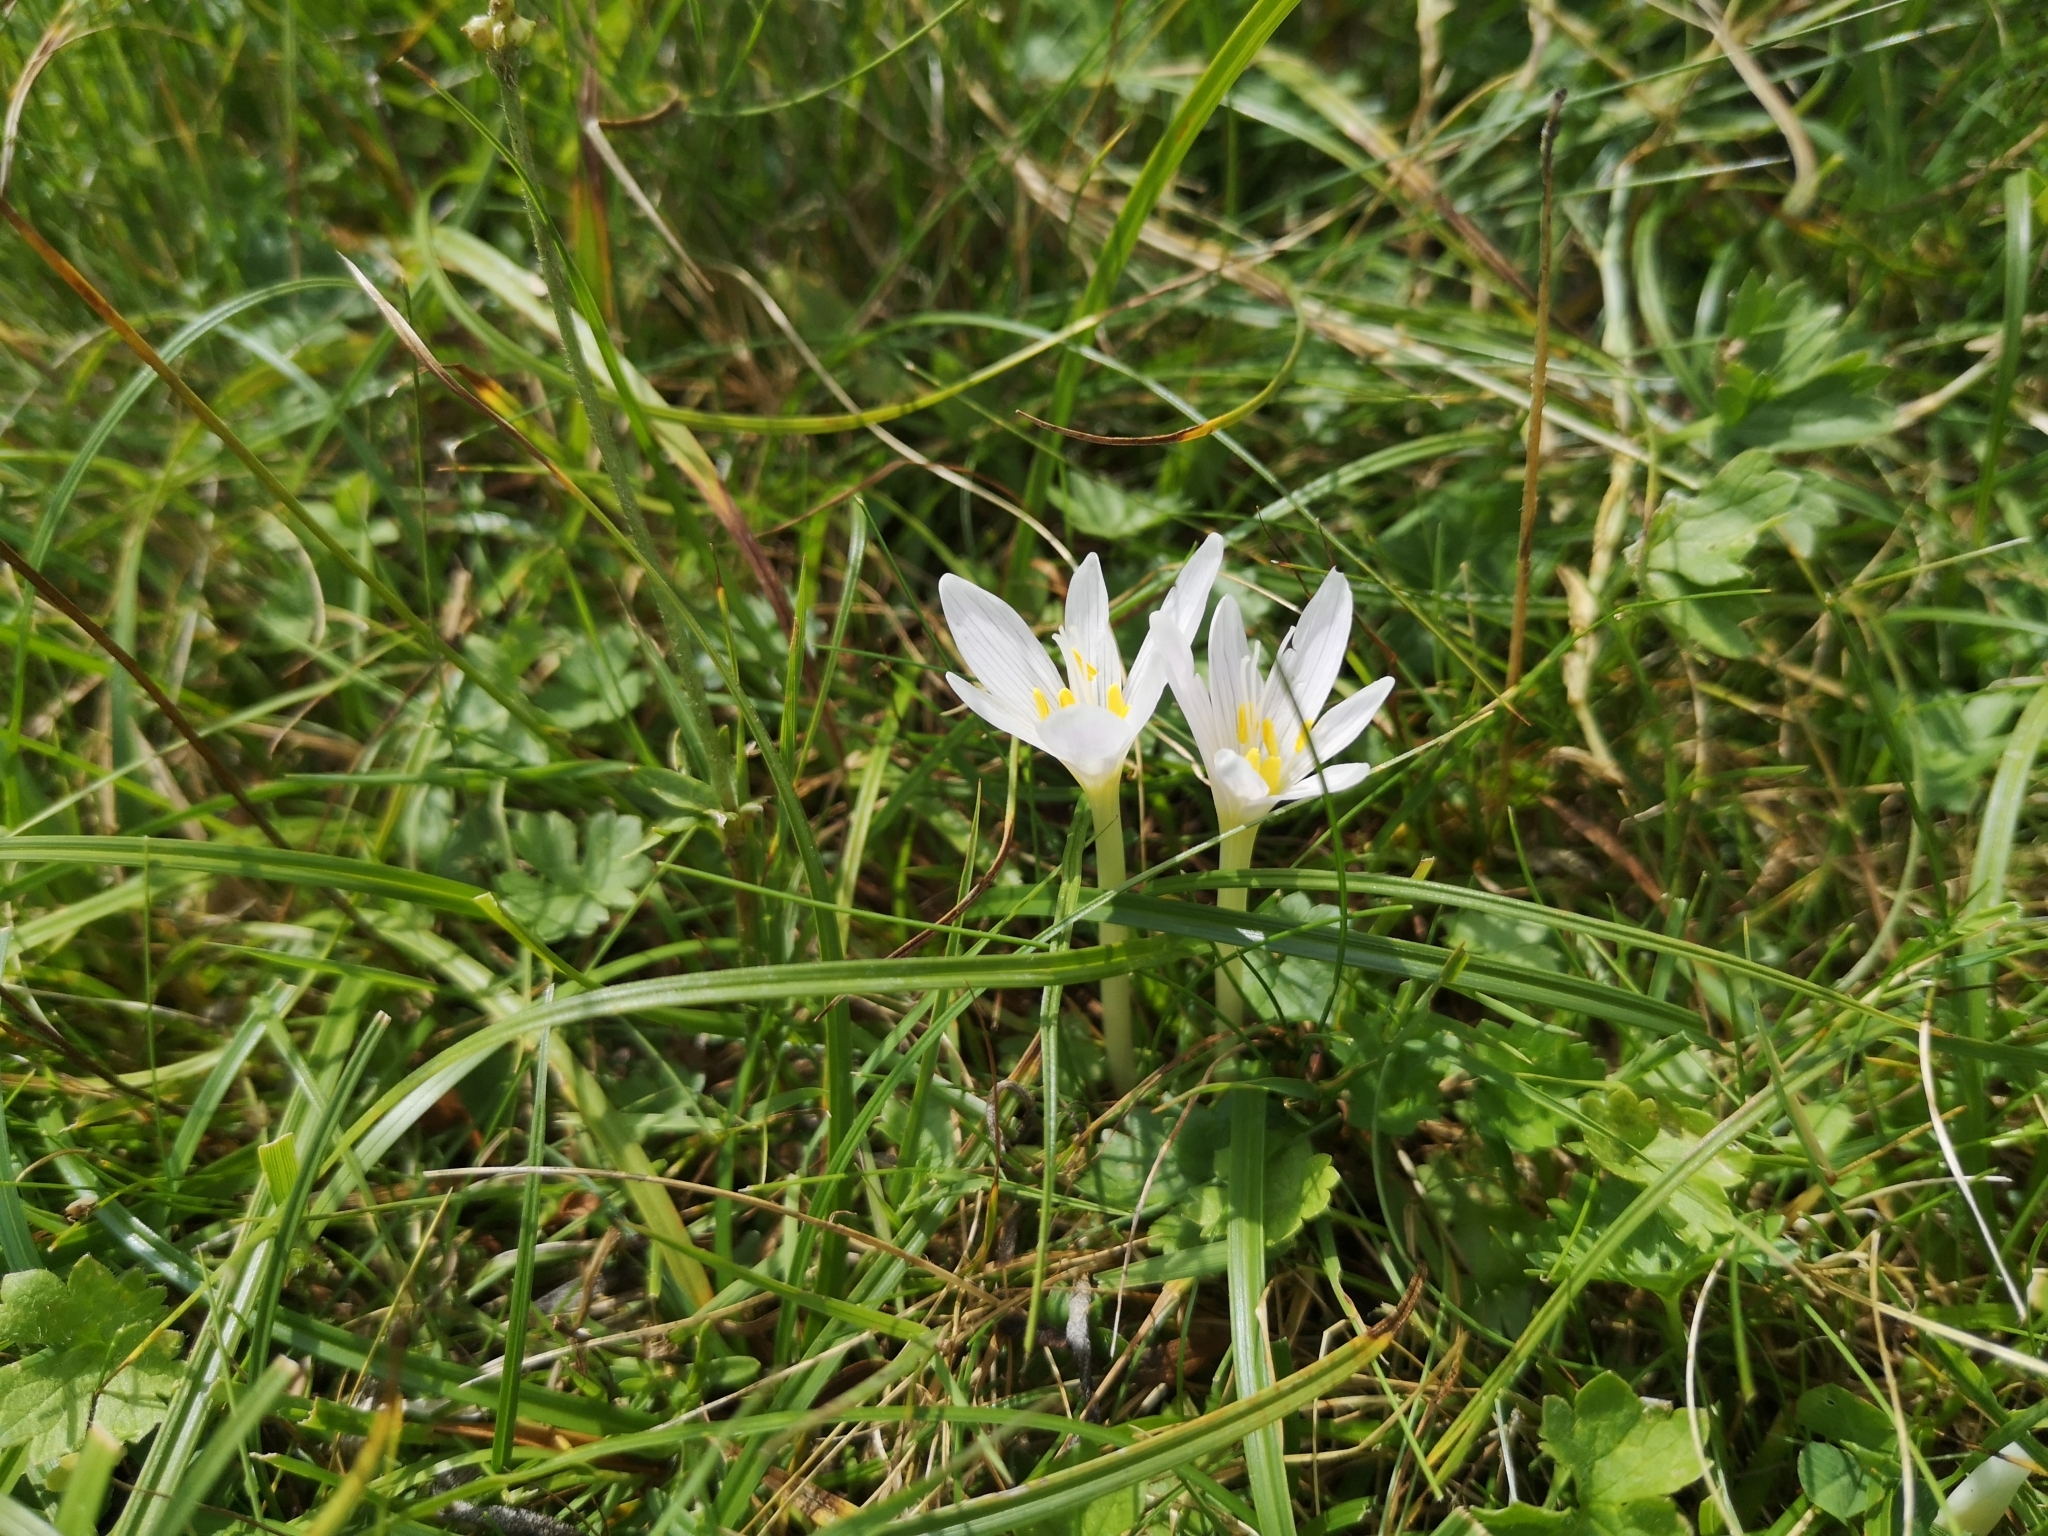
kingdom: Plantae
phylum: Tracheophyta
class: Liliopsida
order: Liliales
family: Colchicaceae
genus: Colchicum
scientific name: Colchicum alpinum
